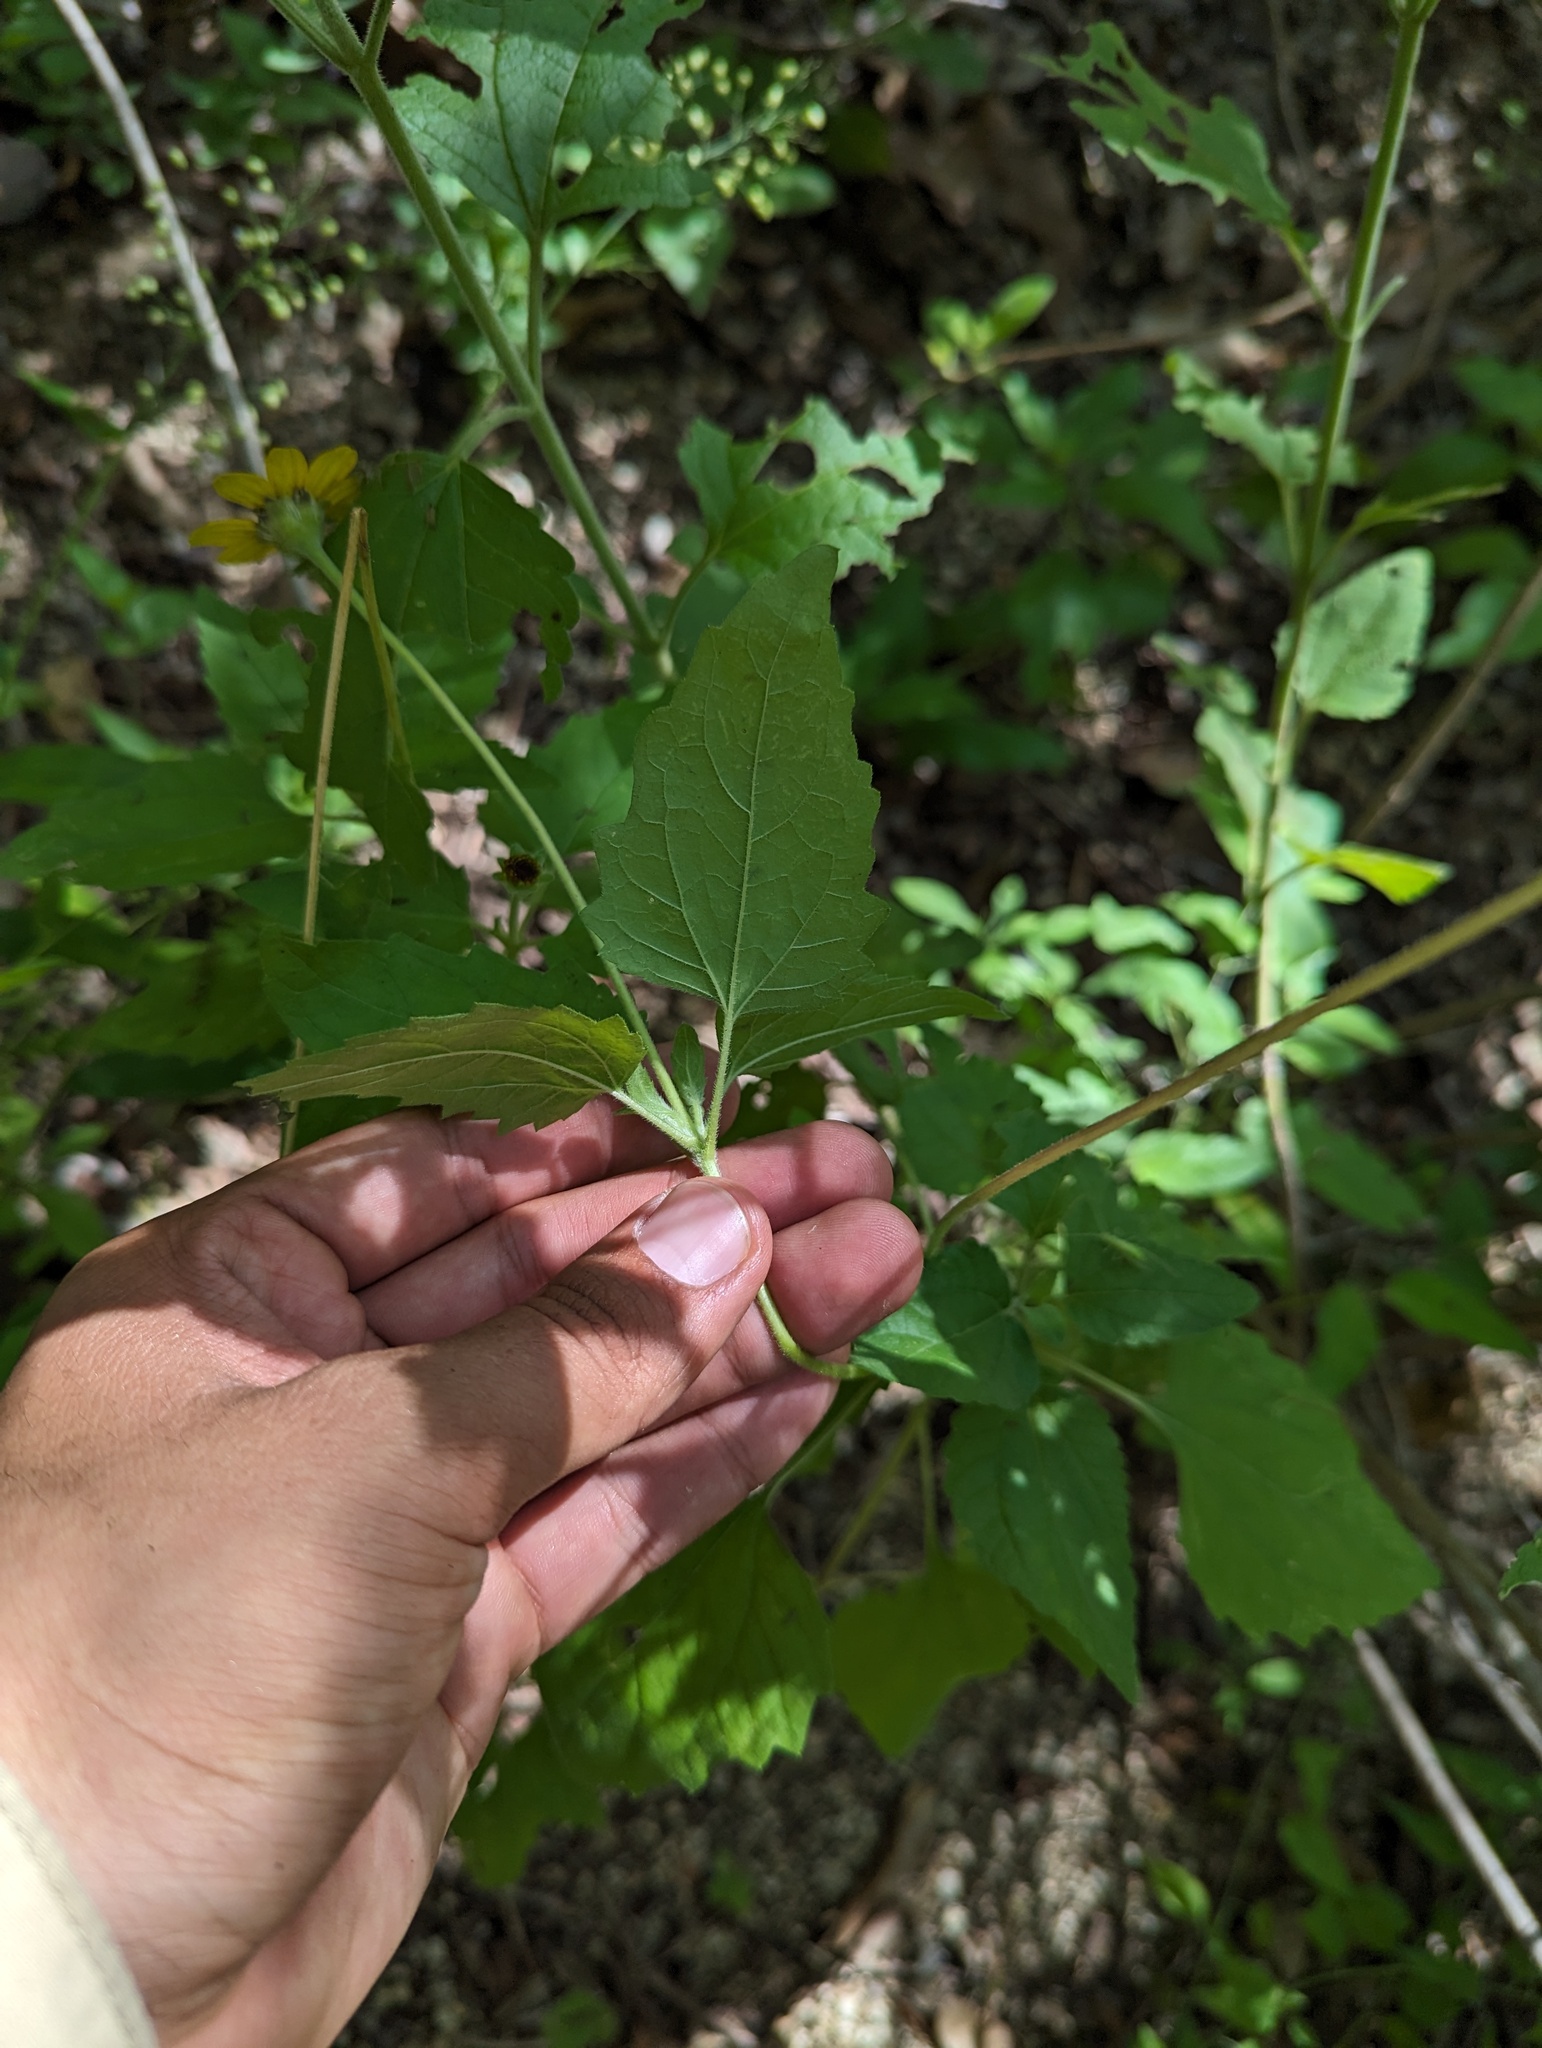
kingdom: Plantae
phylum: Tracheophyta
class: Magnoliopsida
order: Asterales
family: Asteraceae
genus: Heliopsis
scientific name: Heliopsis anomala
